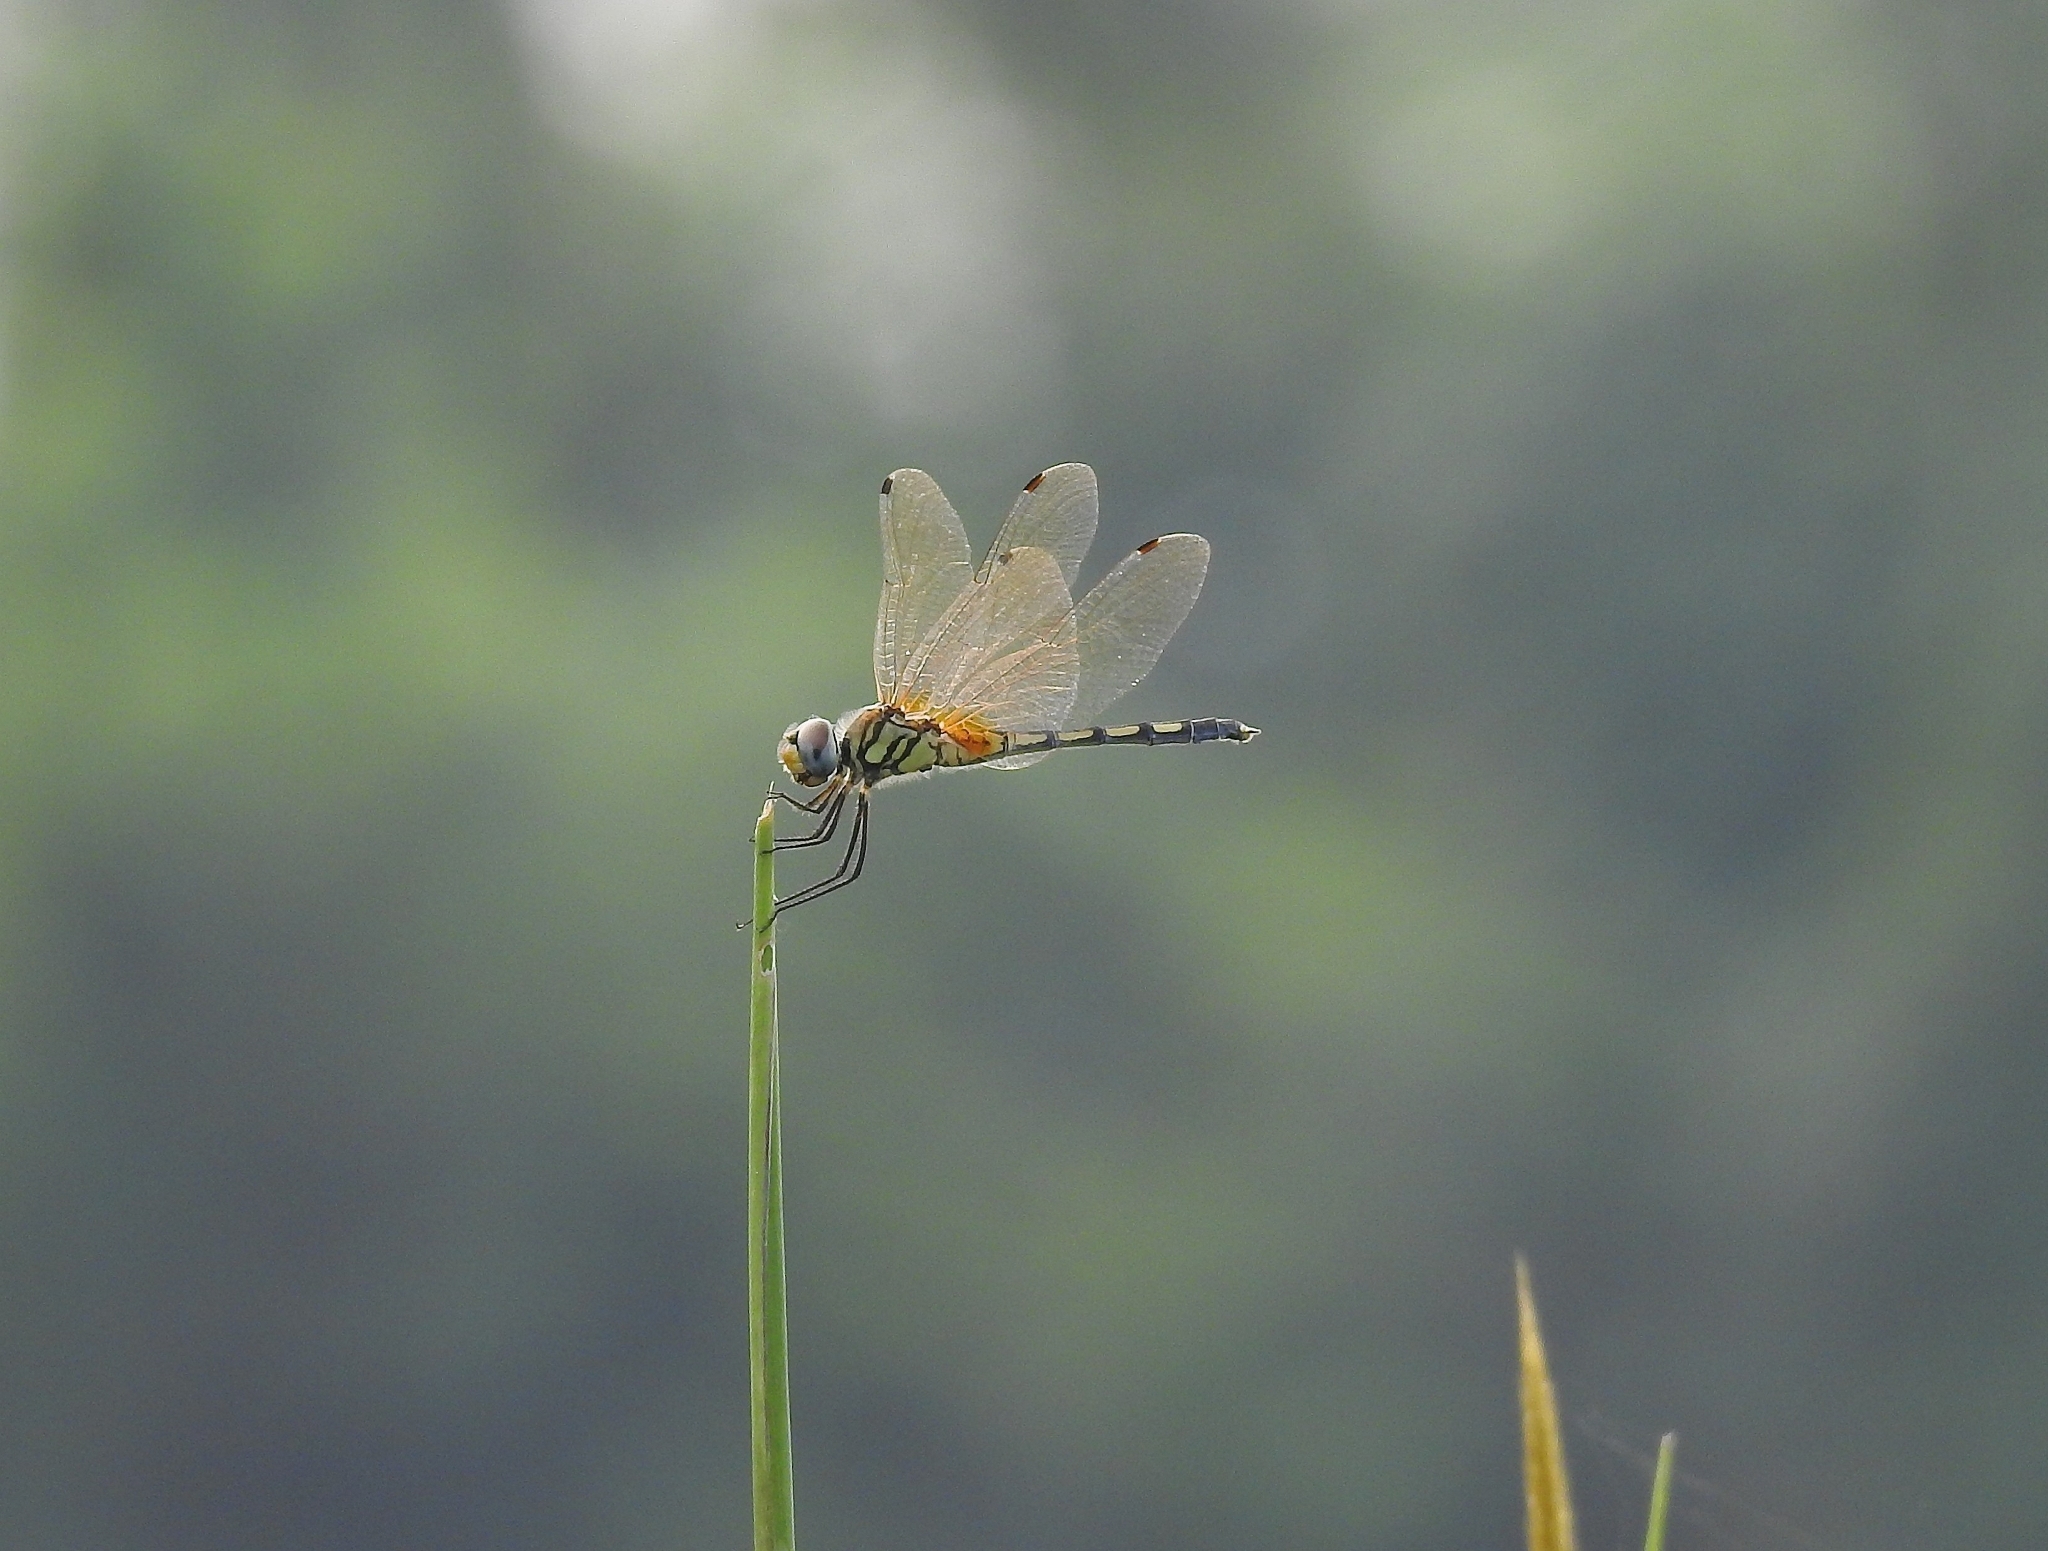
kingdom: Animalia
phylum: Arthropoda
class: Insecta
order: Odonata
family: Libellulidae
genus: Trithemis
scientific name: Trithemis pallidinervis
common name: Dancing dropwing
